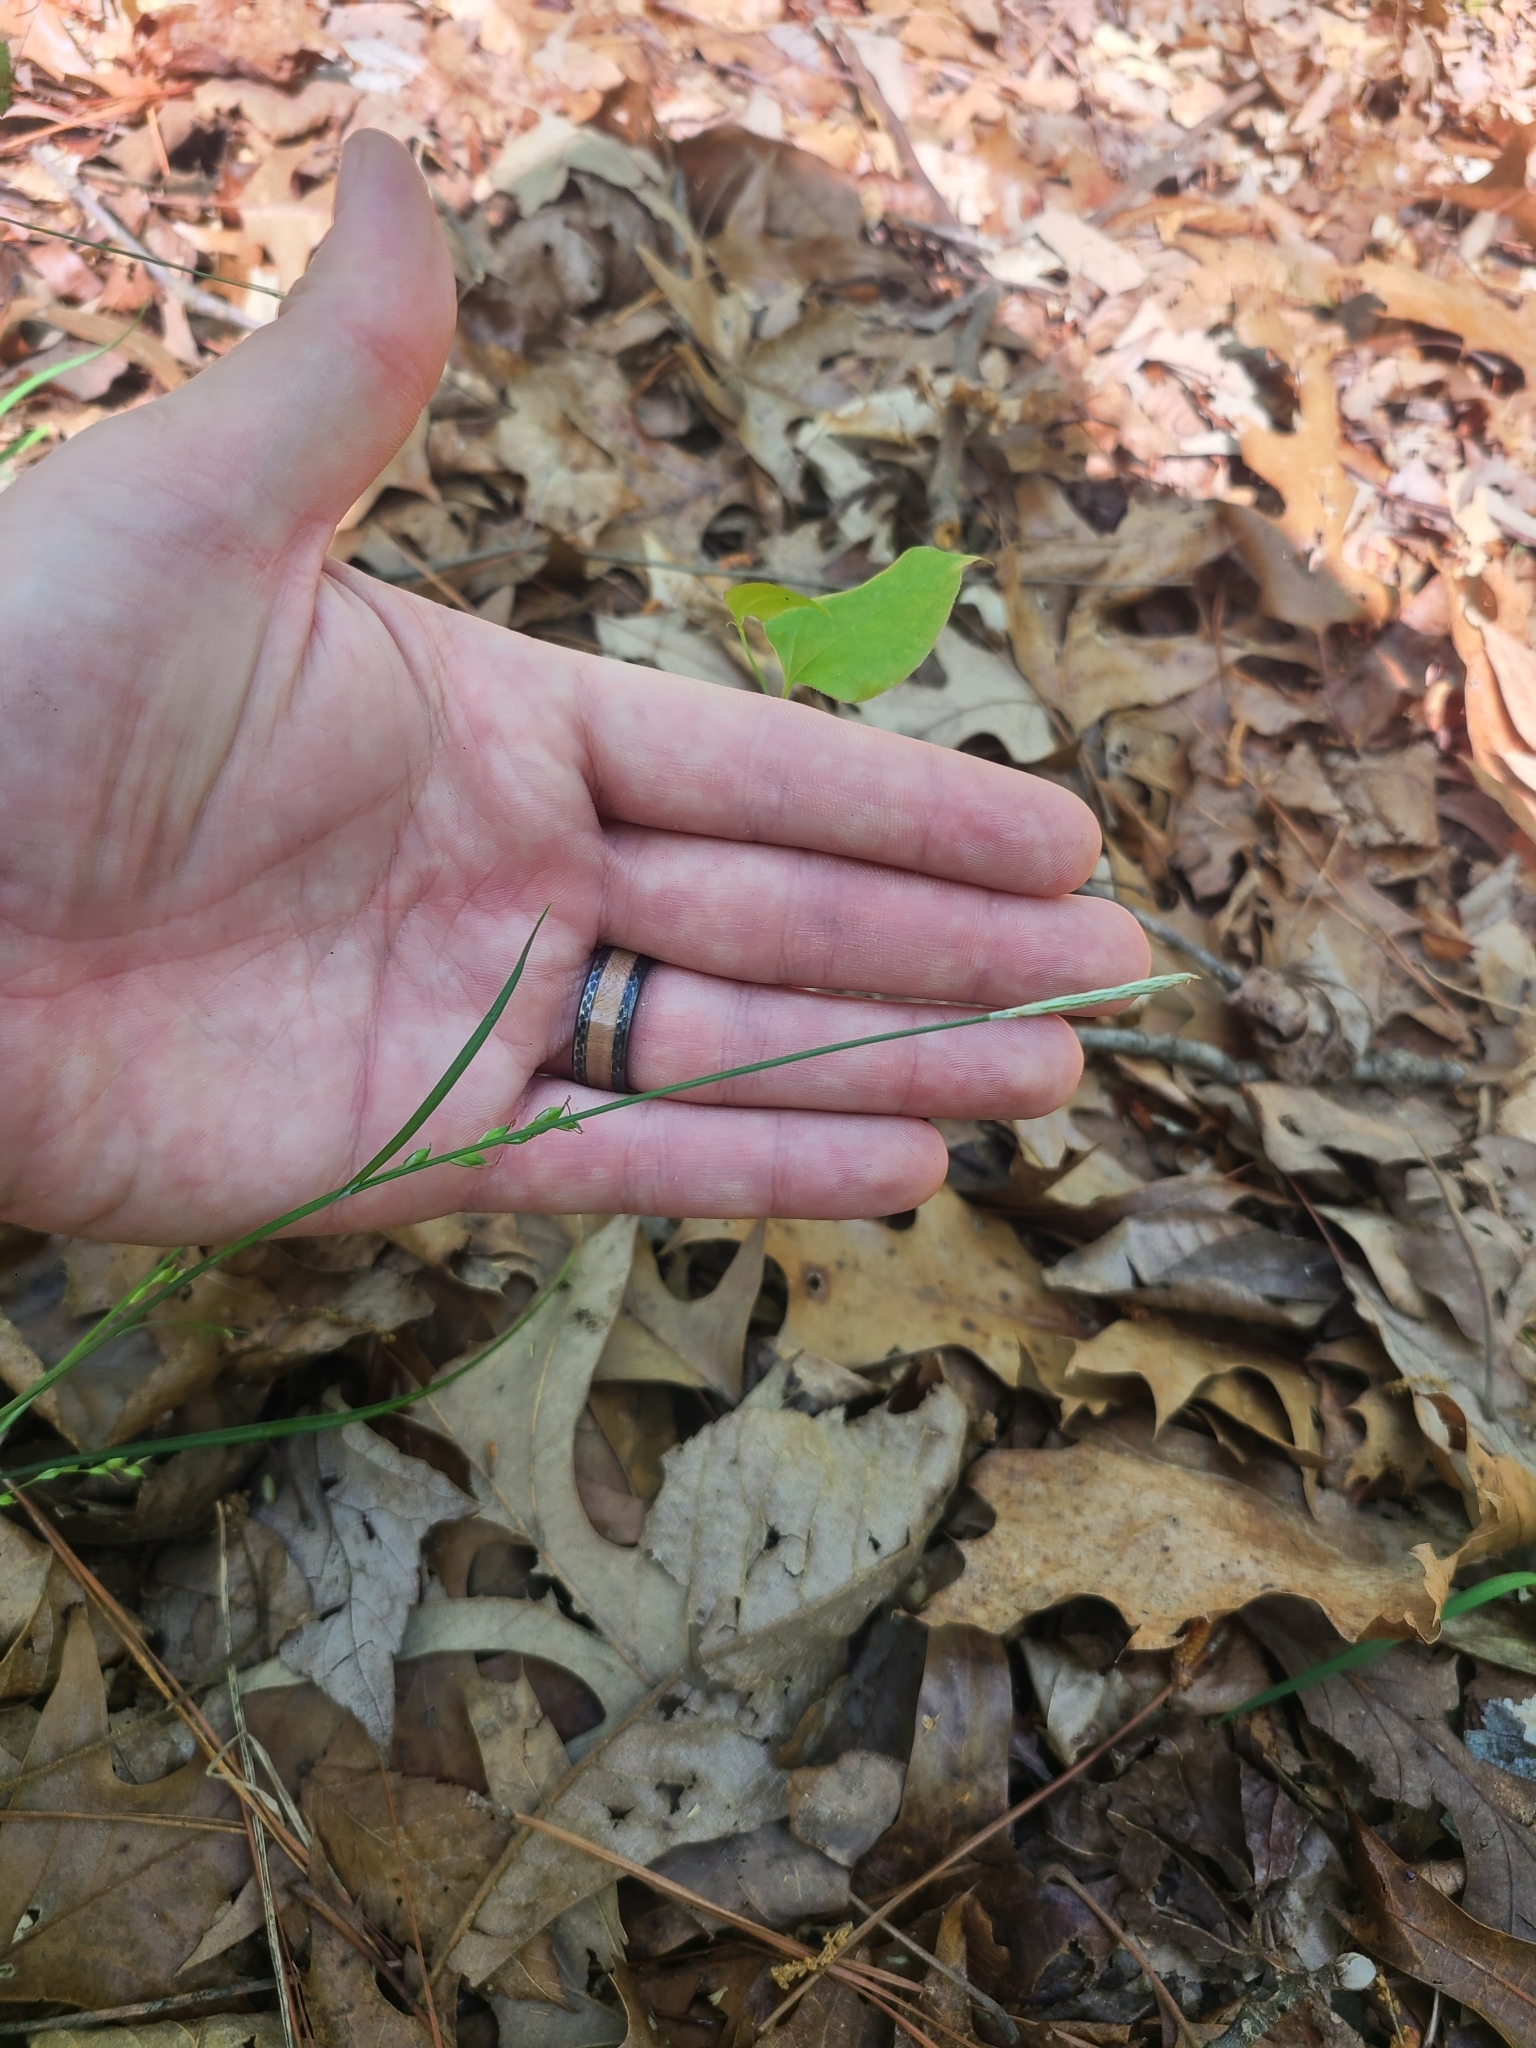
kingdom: Plantae
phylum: Tracheophyta
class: Liliopsida
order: Poales
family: Cyperaceae
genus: Carex
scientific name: Carex ignota
